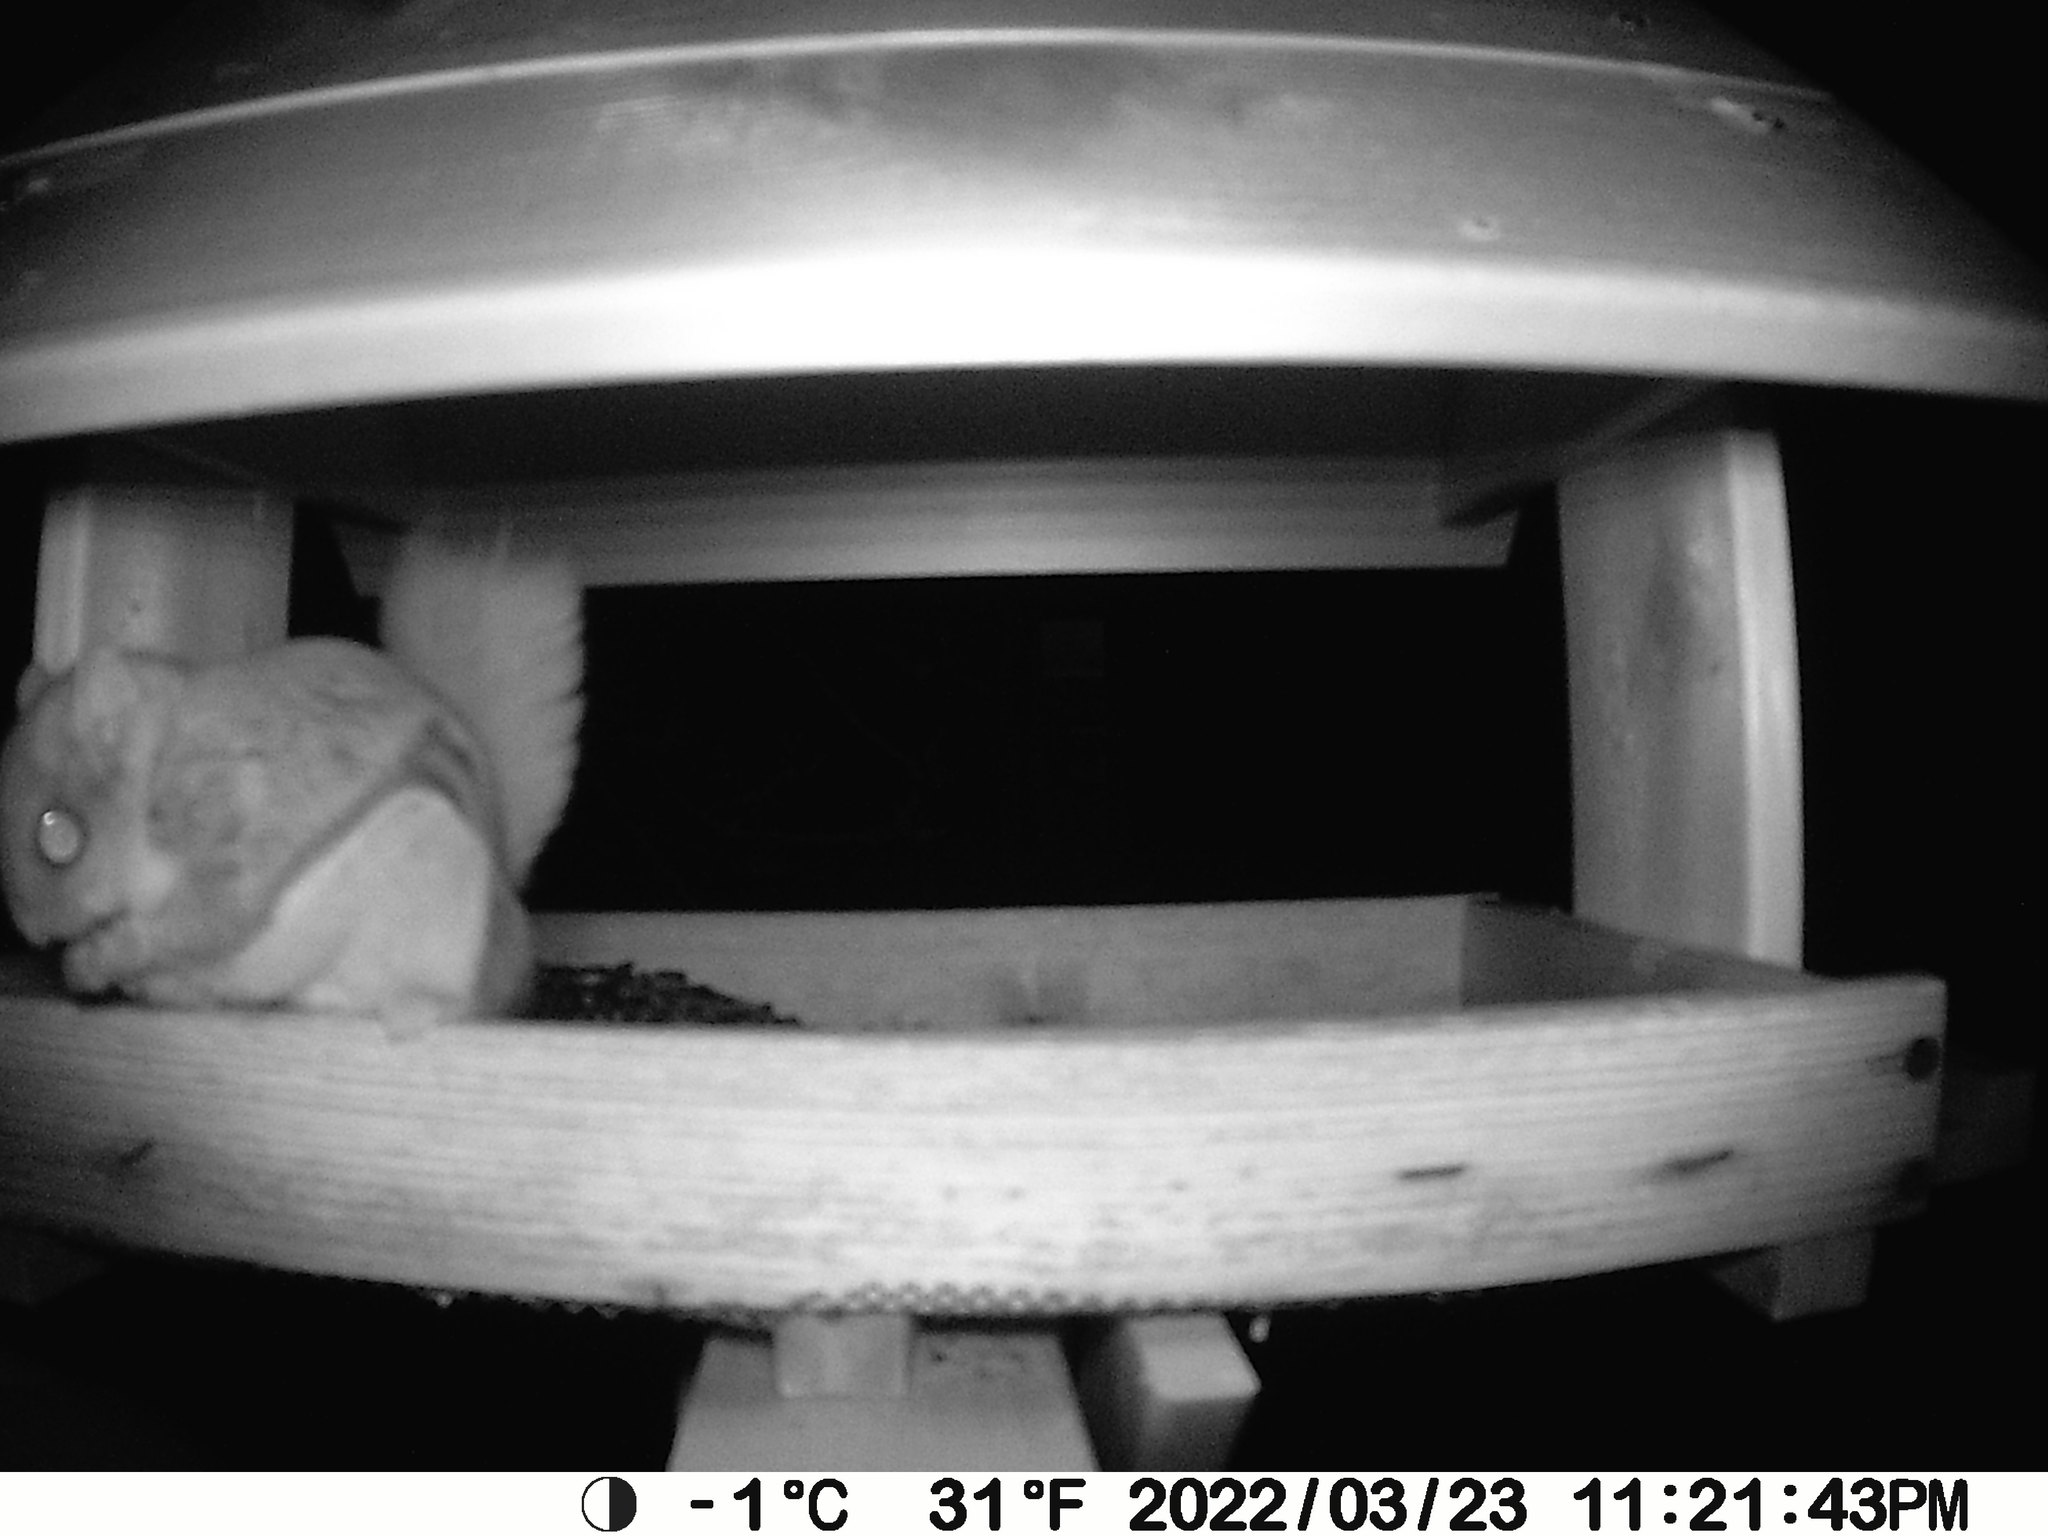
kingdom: Animalia
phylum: Chordata
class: Mammalia
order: Rodentia
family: Sciuridae
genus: Glaucomys
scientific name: Glaucomys sabrinus
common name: Northern flying squirrel
